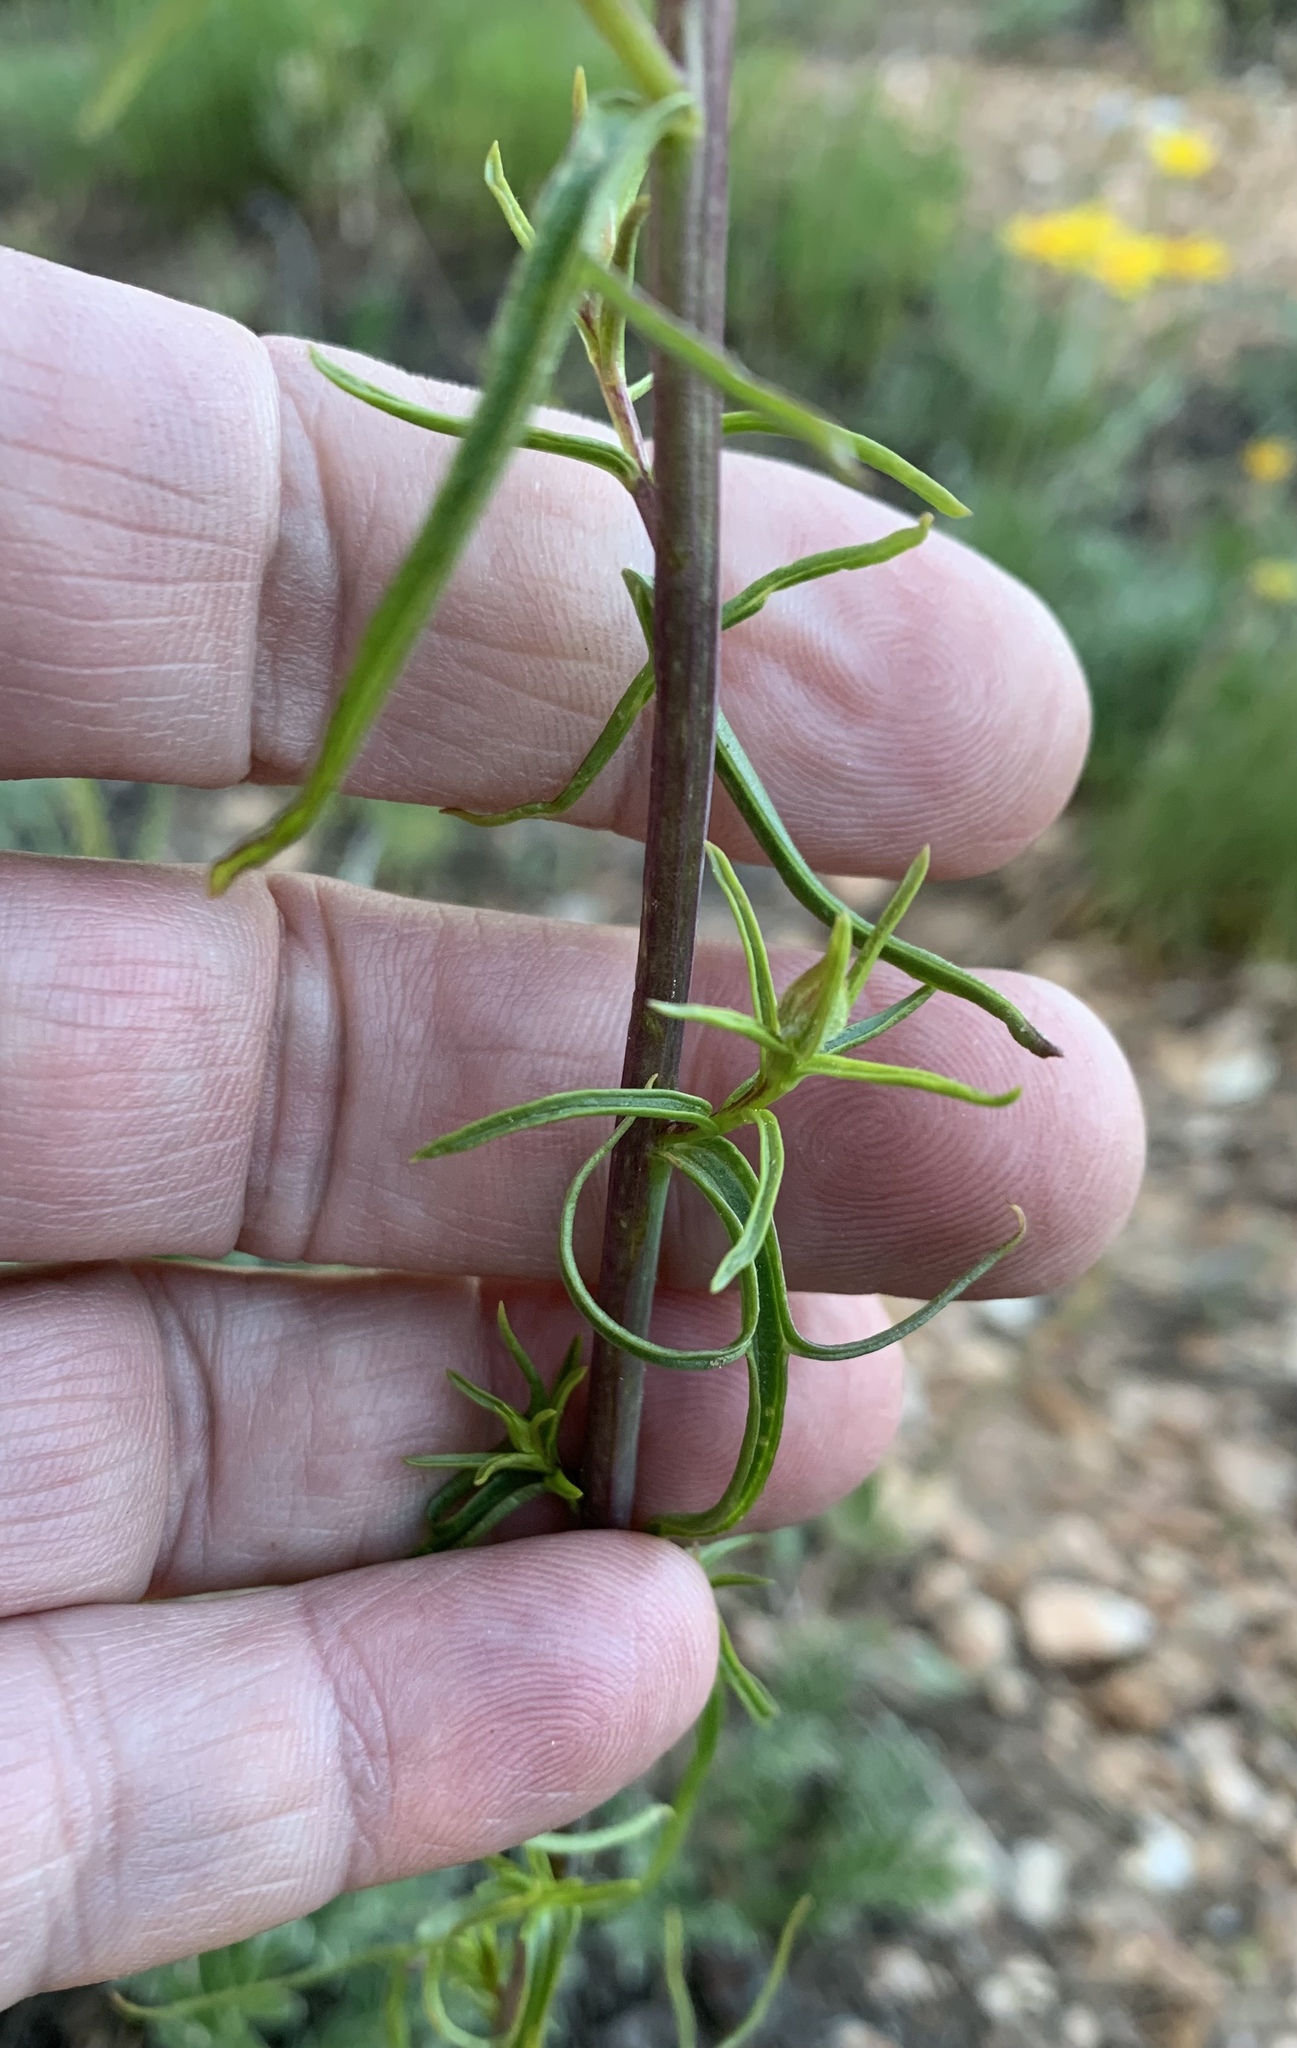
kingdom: Plantae
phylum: Tracheophyta
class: Magnoliopsida
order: Lamiales
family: Orobanchaceae
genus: Castilleja
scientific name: Castilleja linariifolia
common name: Wyoming paintbrush
